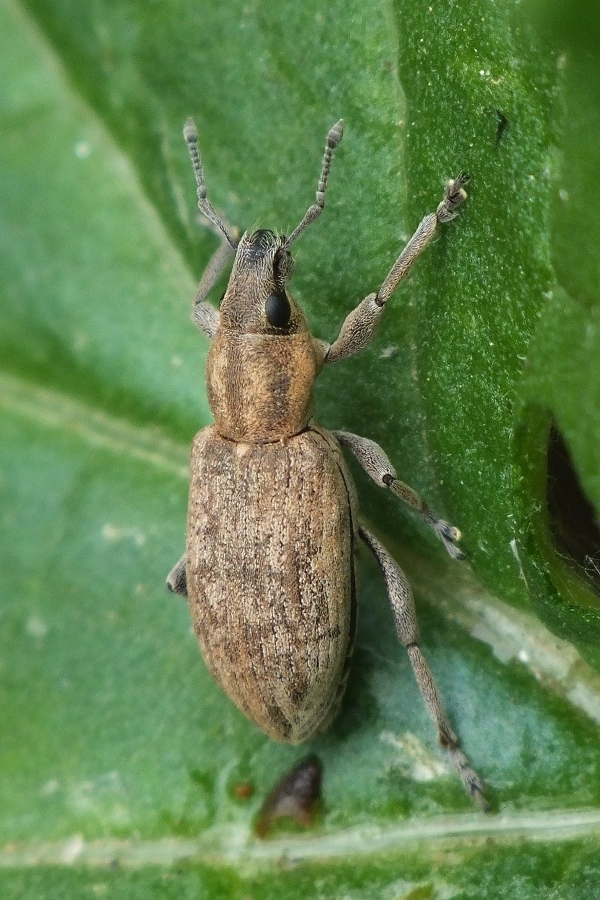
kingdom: Animalia
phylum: Arthropoda
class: Insecta
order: Coleoptera
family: Curculionidae
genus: Tanymecus
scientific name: Tanymecus palliatus
